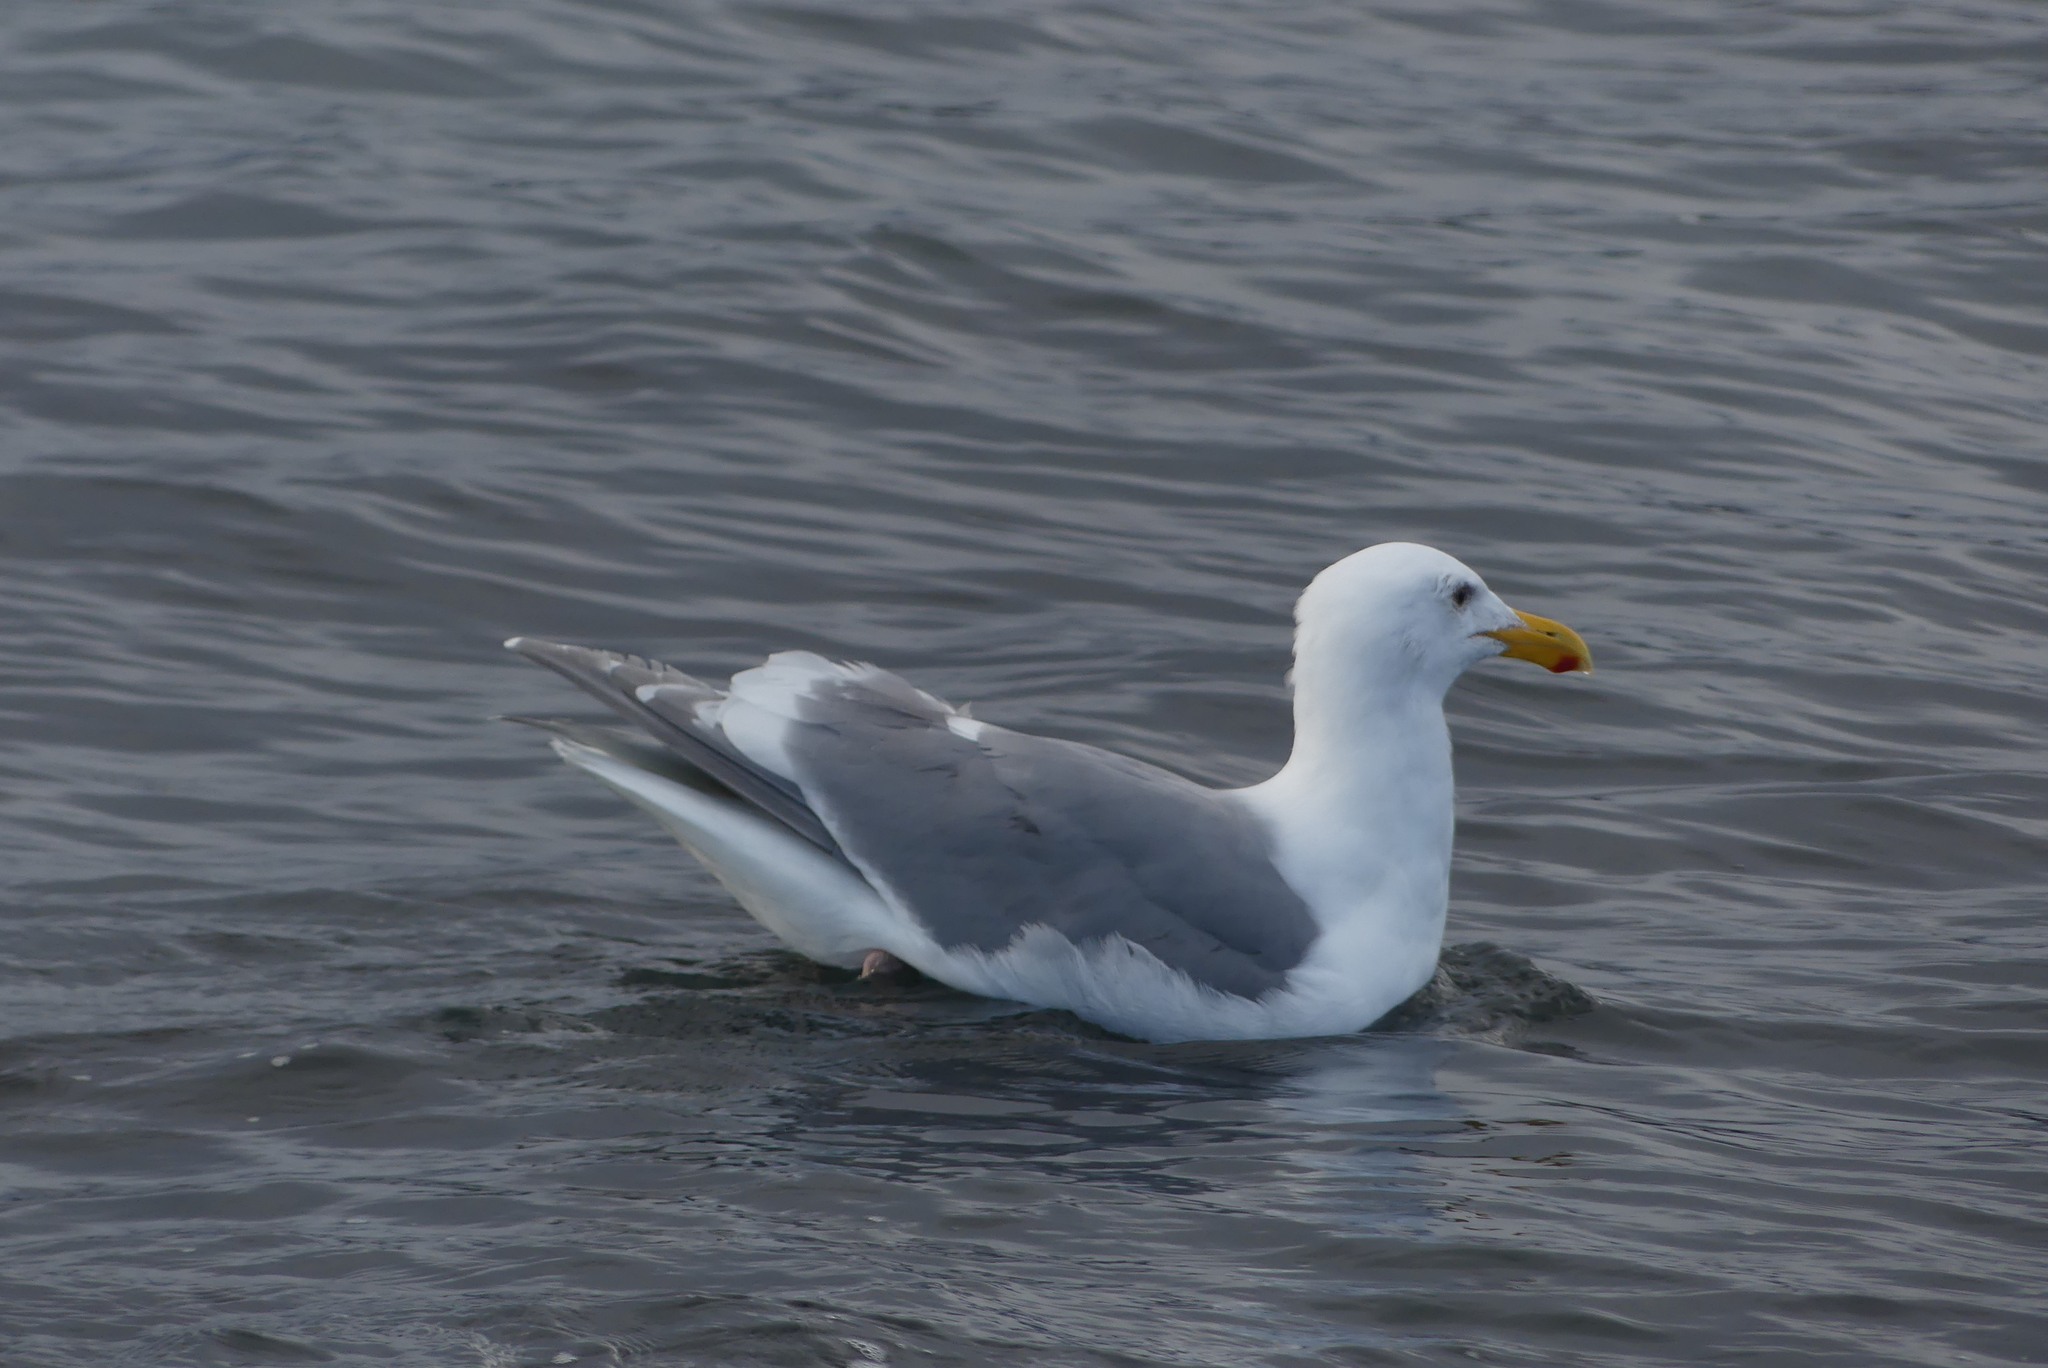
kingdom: Animalia
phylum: Chordata
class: Aves
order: Charadriiformes
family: Laridae
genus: Larus
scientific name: Larus glaucescens
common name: Glaucous-winged gull
